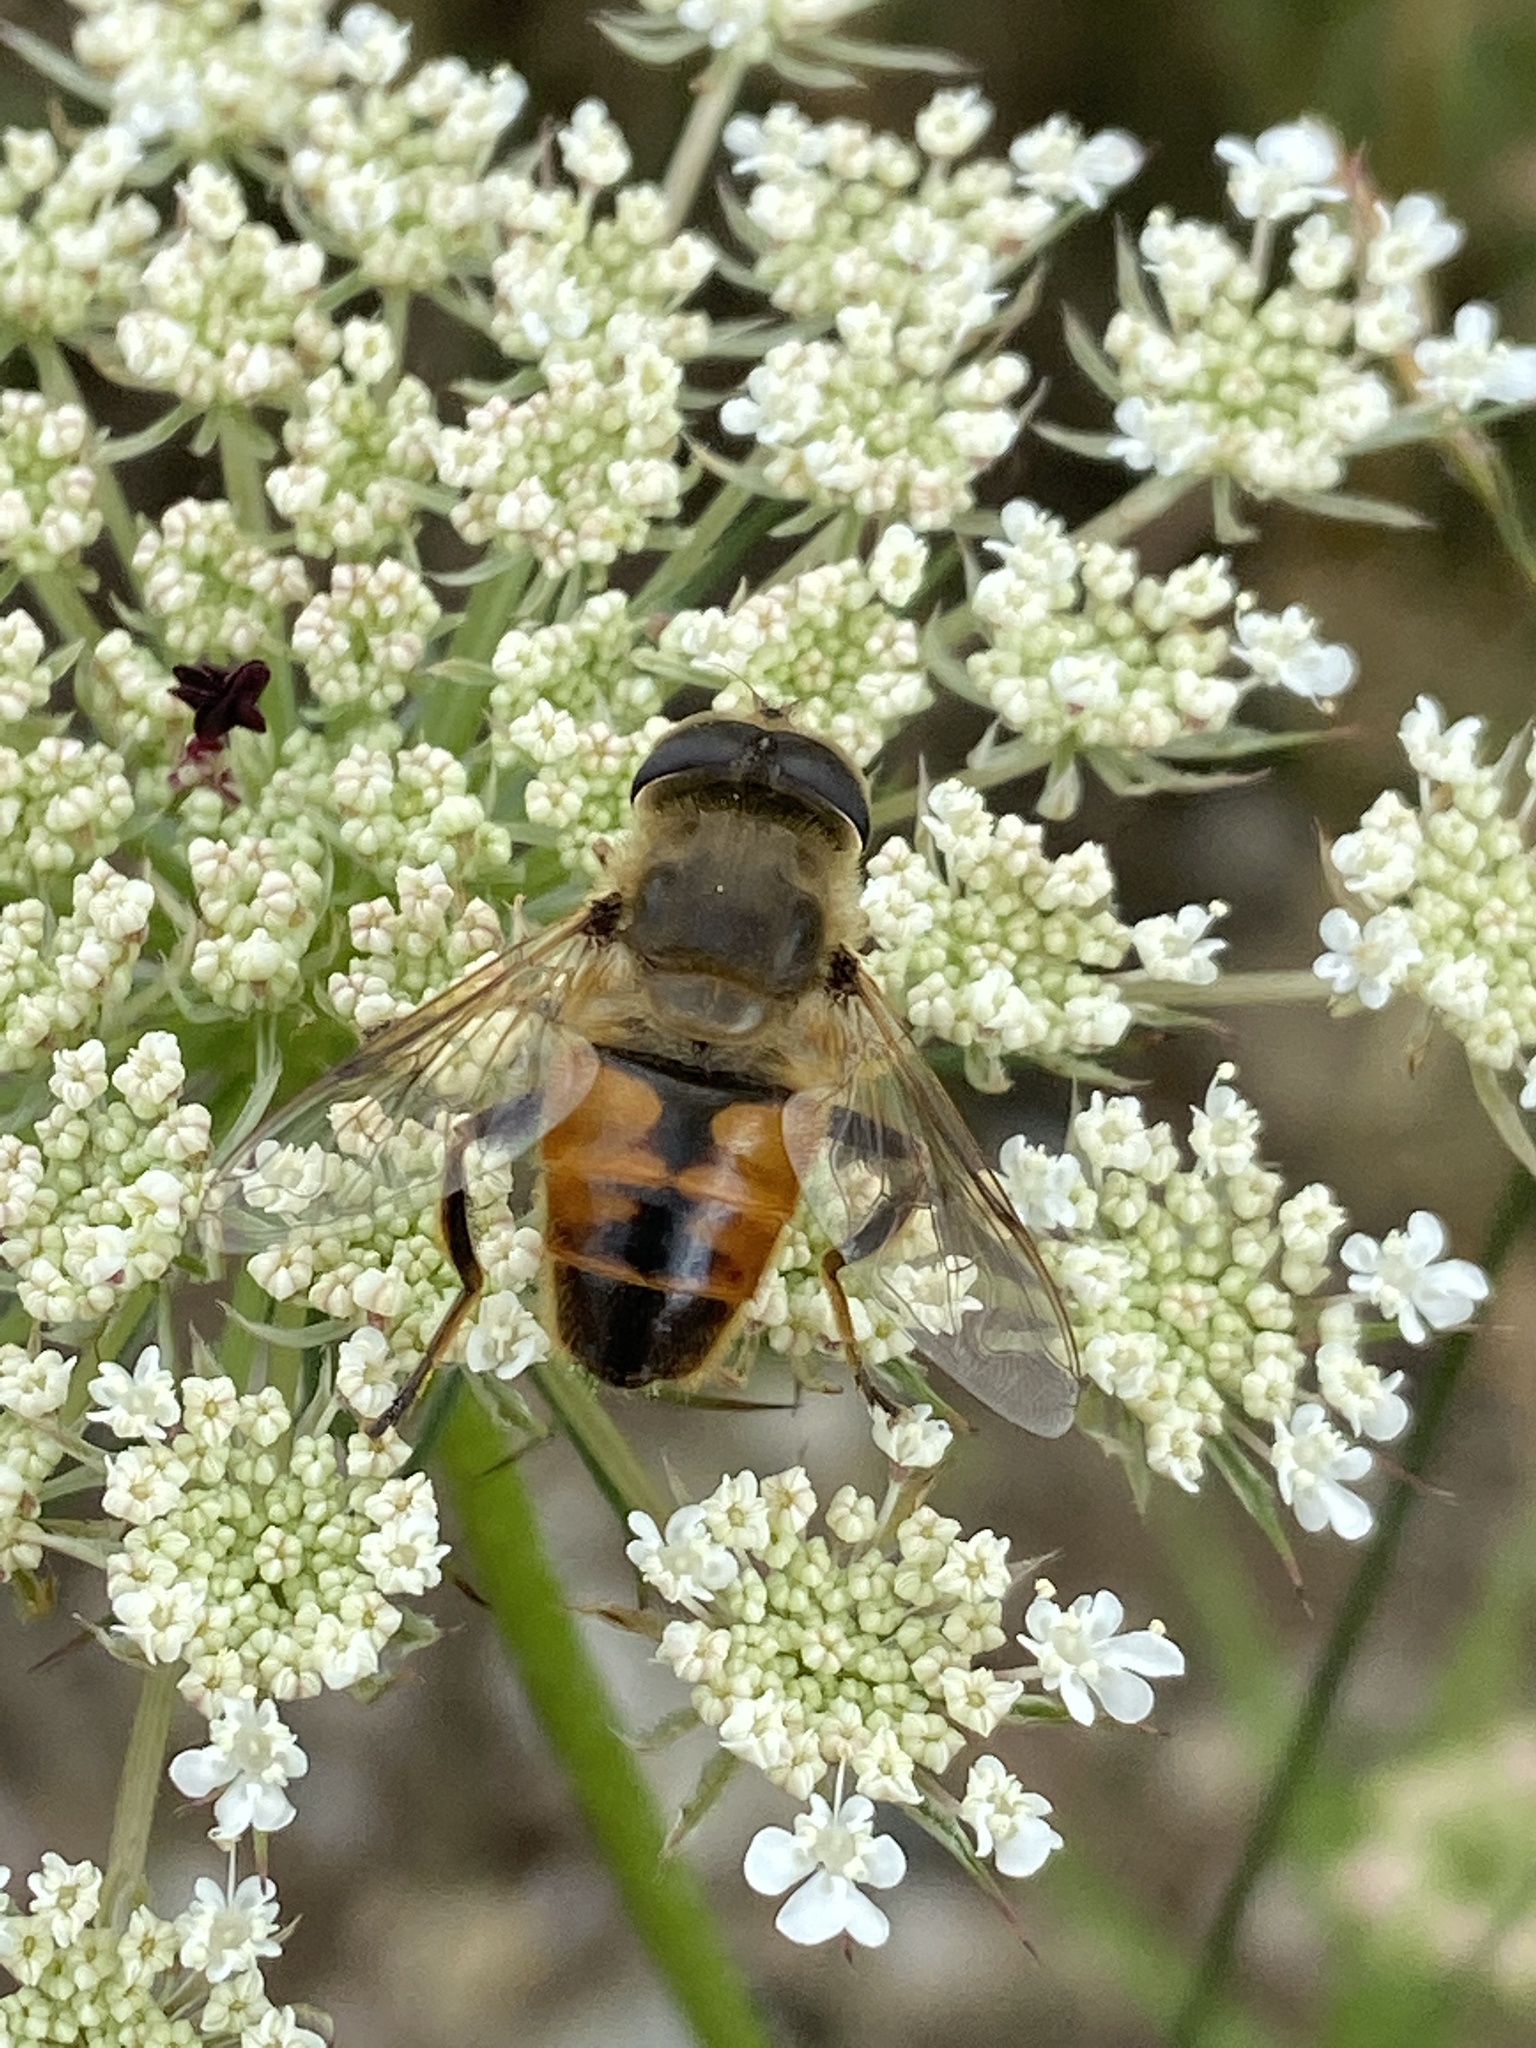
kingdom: Animalia
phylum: Arthropoda
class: Insecta
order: Diptera
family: Syrphidae
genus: Eristalis
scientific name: Eristalis tenax
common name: Drone fly
